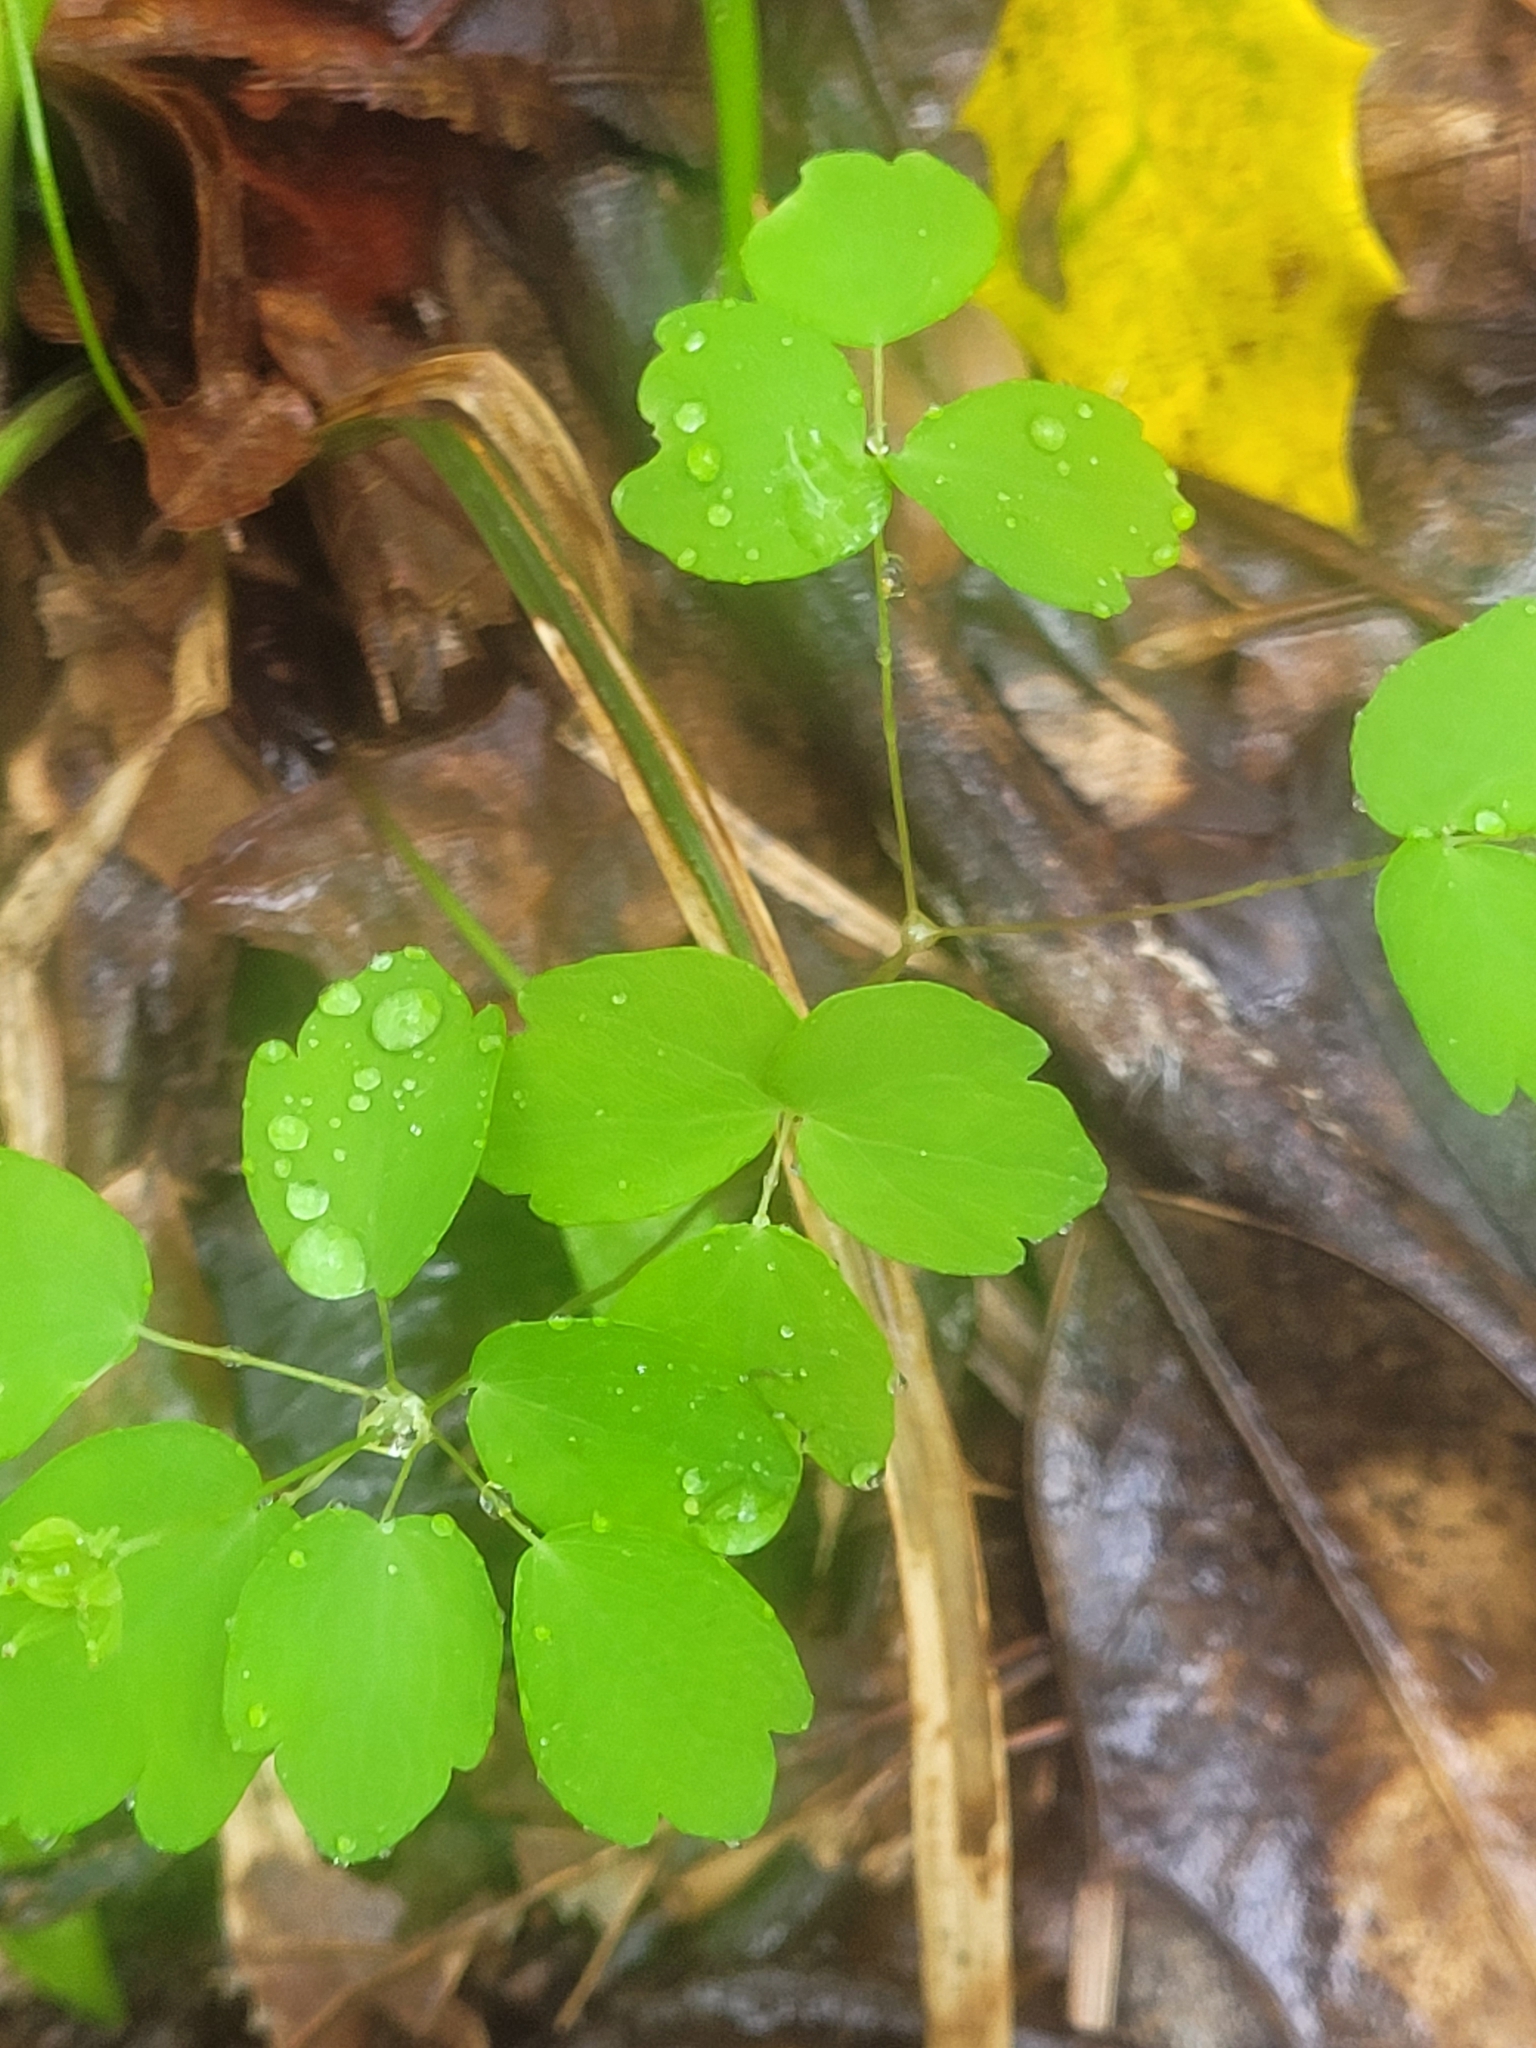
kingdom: Plantae
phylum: Tracheophyta
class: Magnoliopsida
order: Ranunculales
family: Ranunculaceae
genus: Thalictrum
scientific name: Thalictrum thalictroides
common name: Rue-anemone
